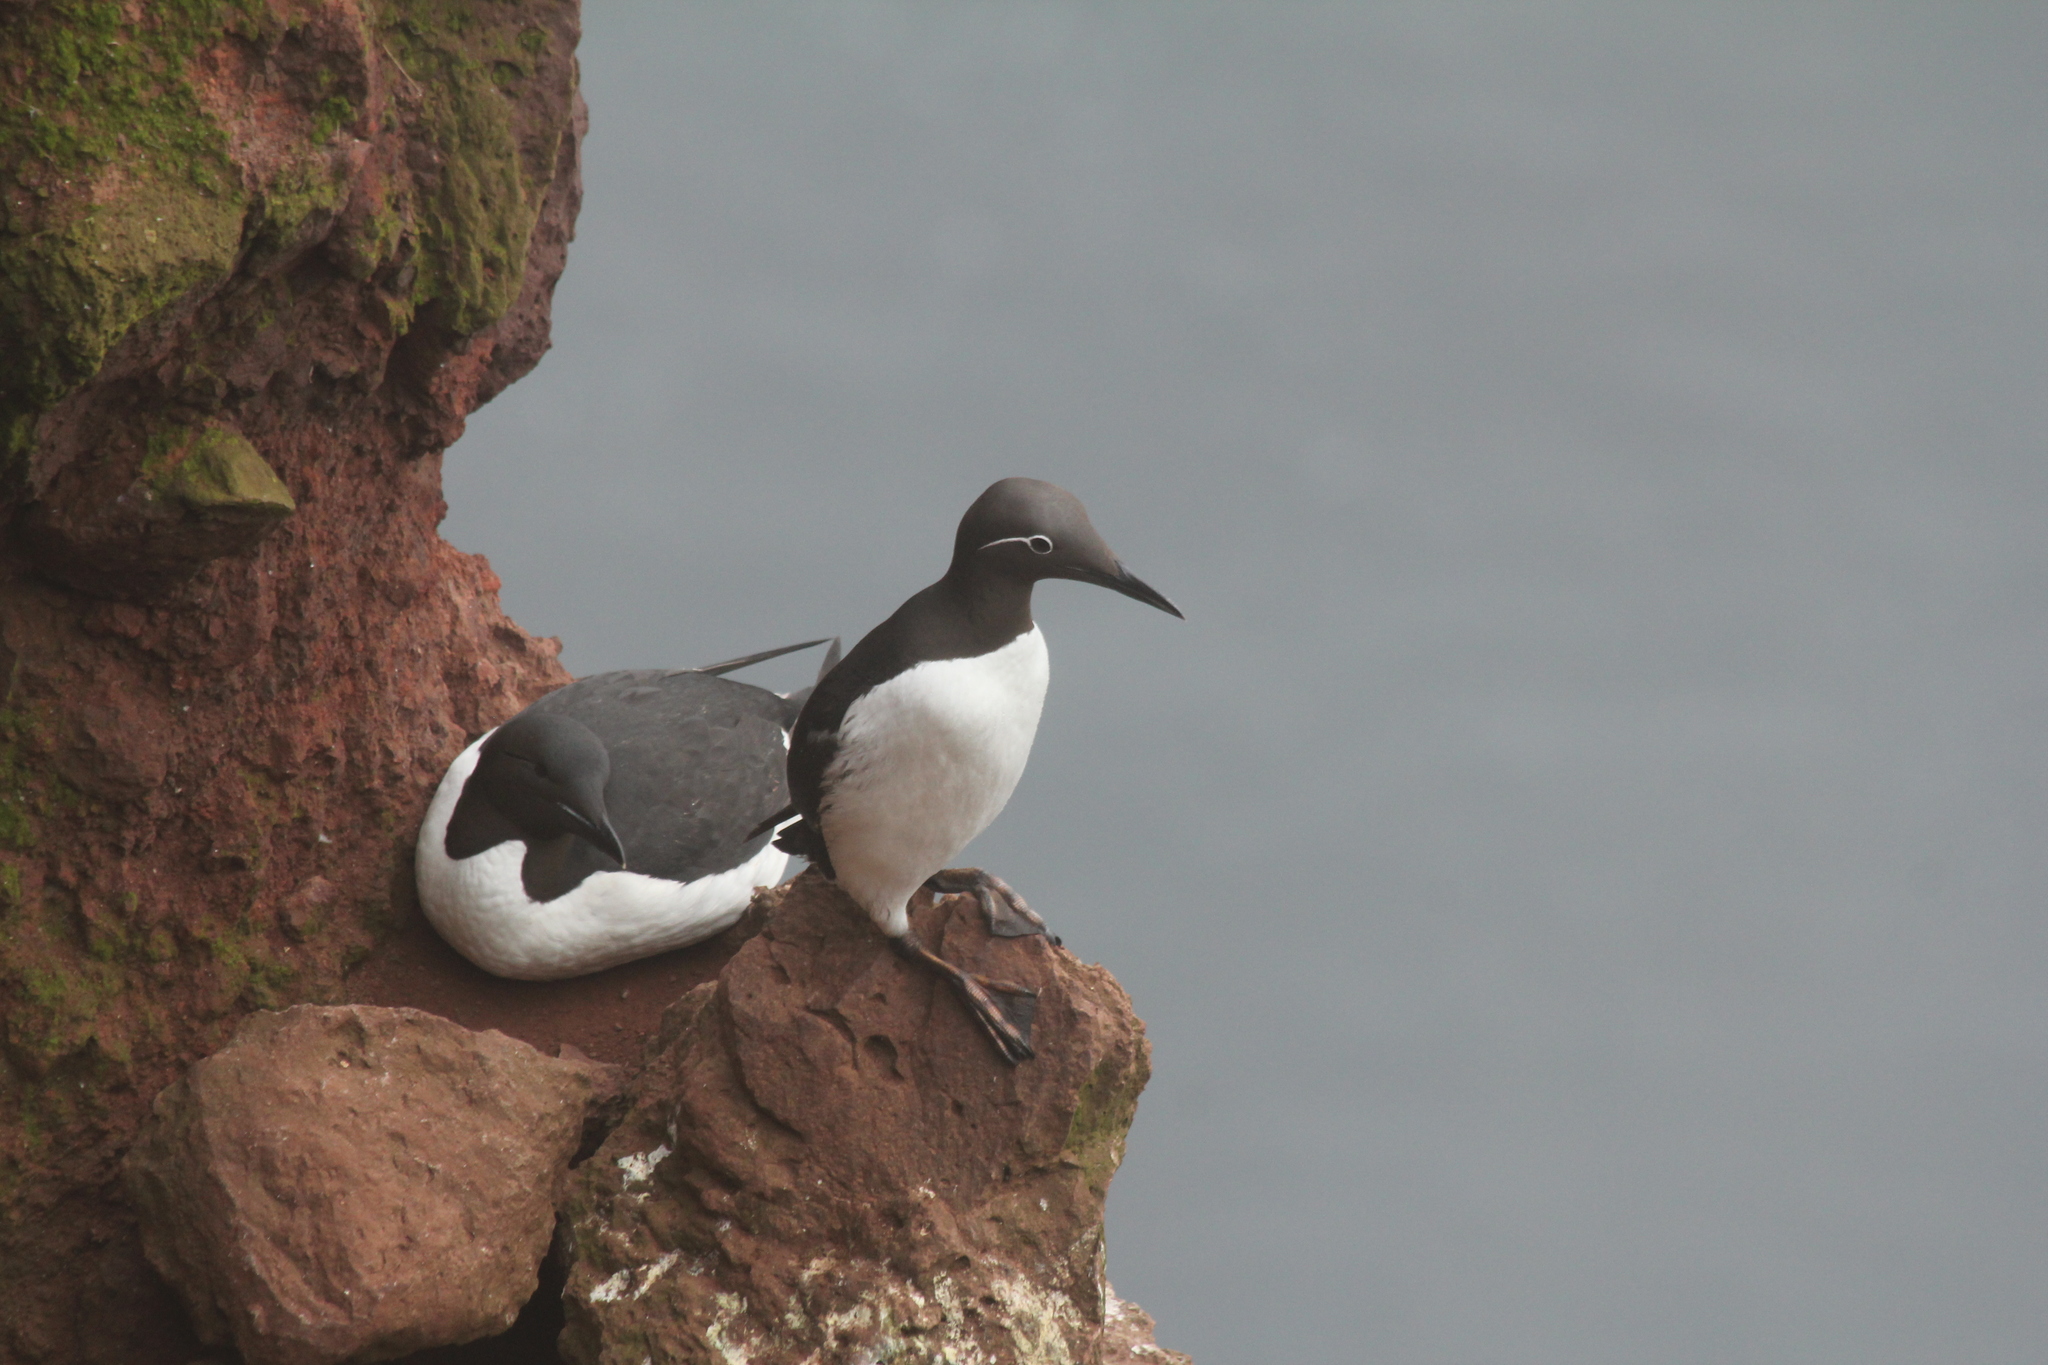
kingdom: Animalia
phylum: Chordata
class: Aves
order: Charadriiformes
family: Alcidae
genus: Uria
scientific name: Uria aalge
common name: Common murre
